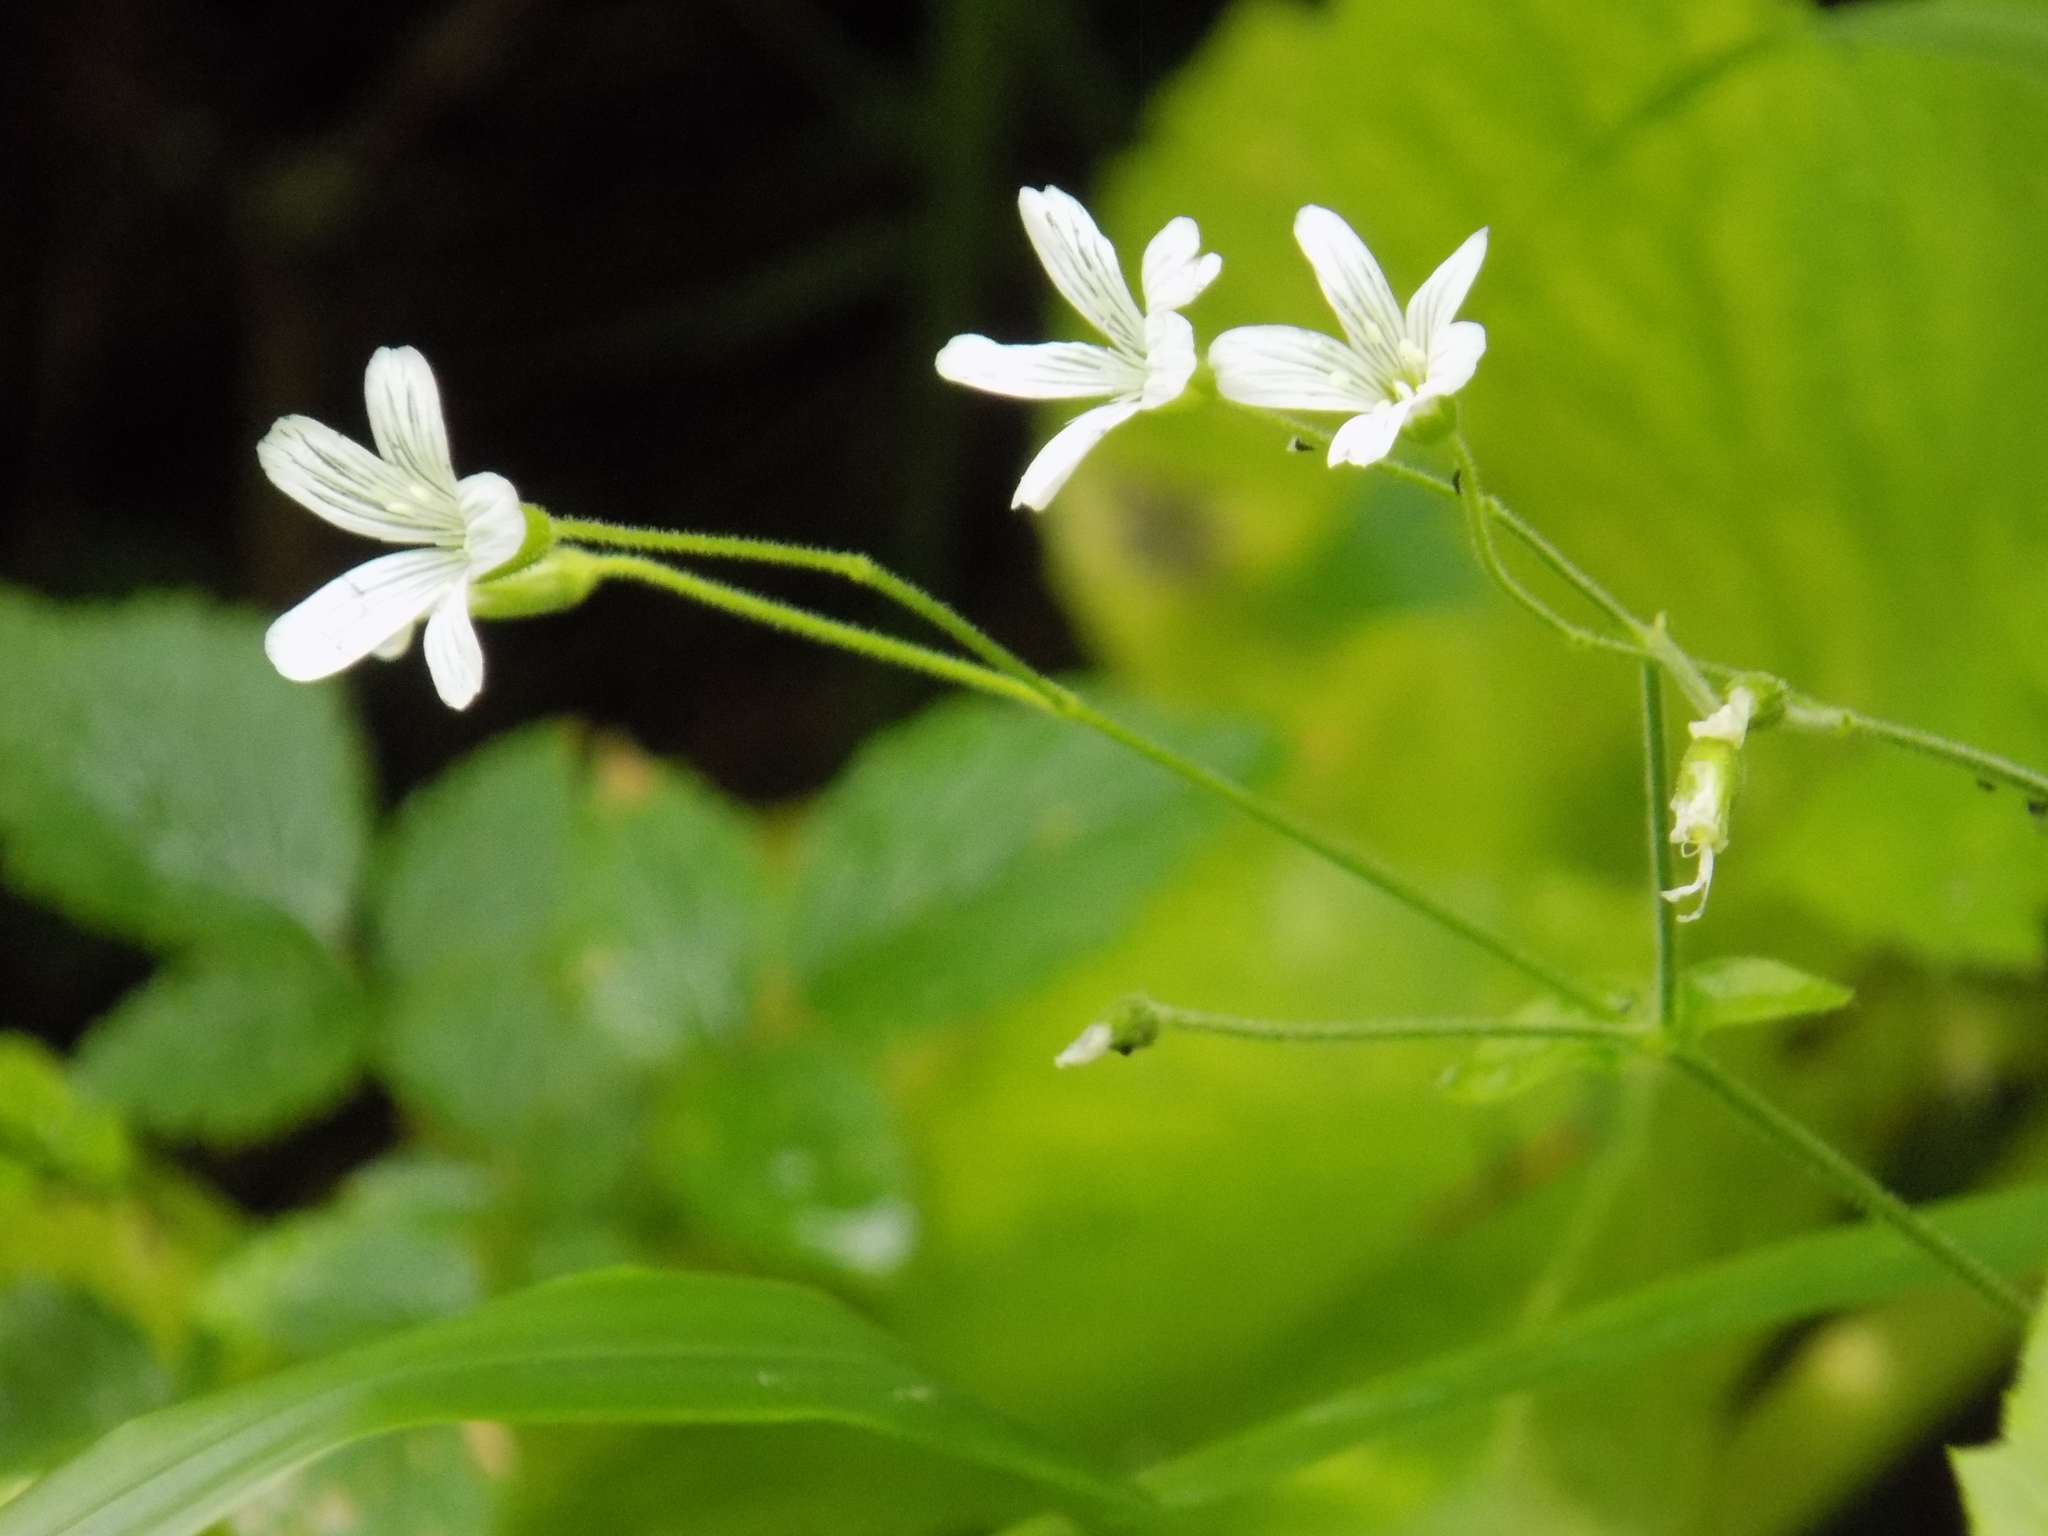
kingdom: Plantae
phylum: Tracheophyta
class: Magnoliopsida
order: Caryophyllales
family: Caryophyllaceae
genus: Cerastium
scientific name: Cerastium pauciflorum
